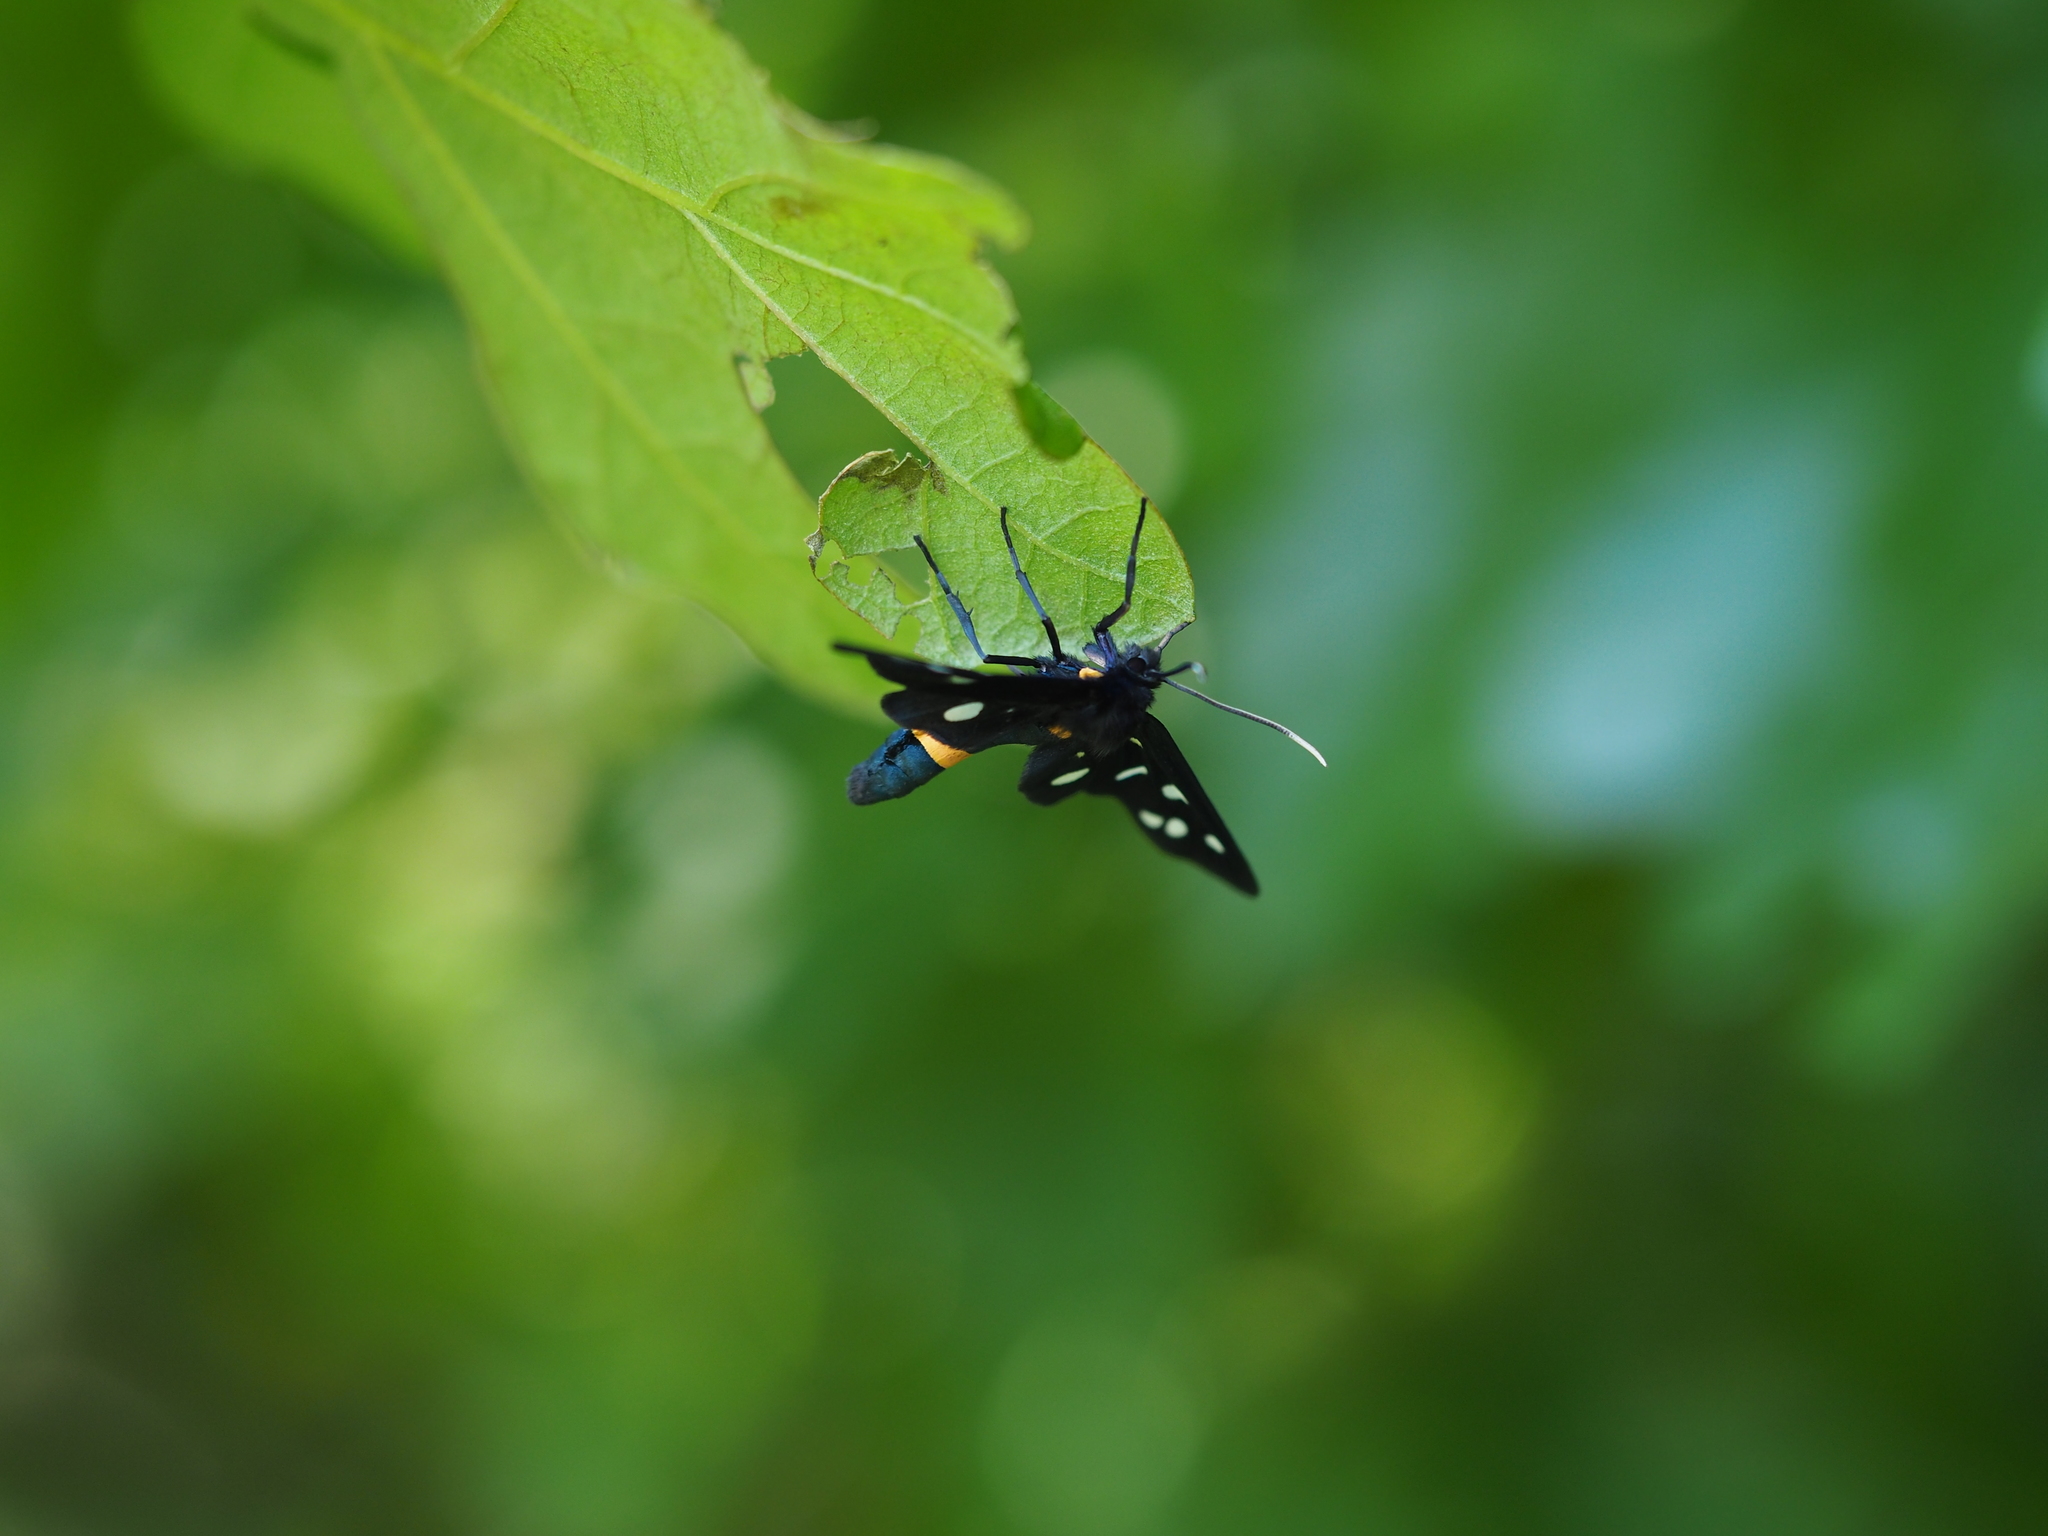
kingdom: Animalia
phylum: Arthropoda
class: Insecta
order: Lepidoptera
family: Erebidae
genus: Amata
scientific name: Amata phegea
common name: Nine-spotted
